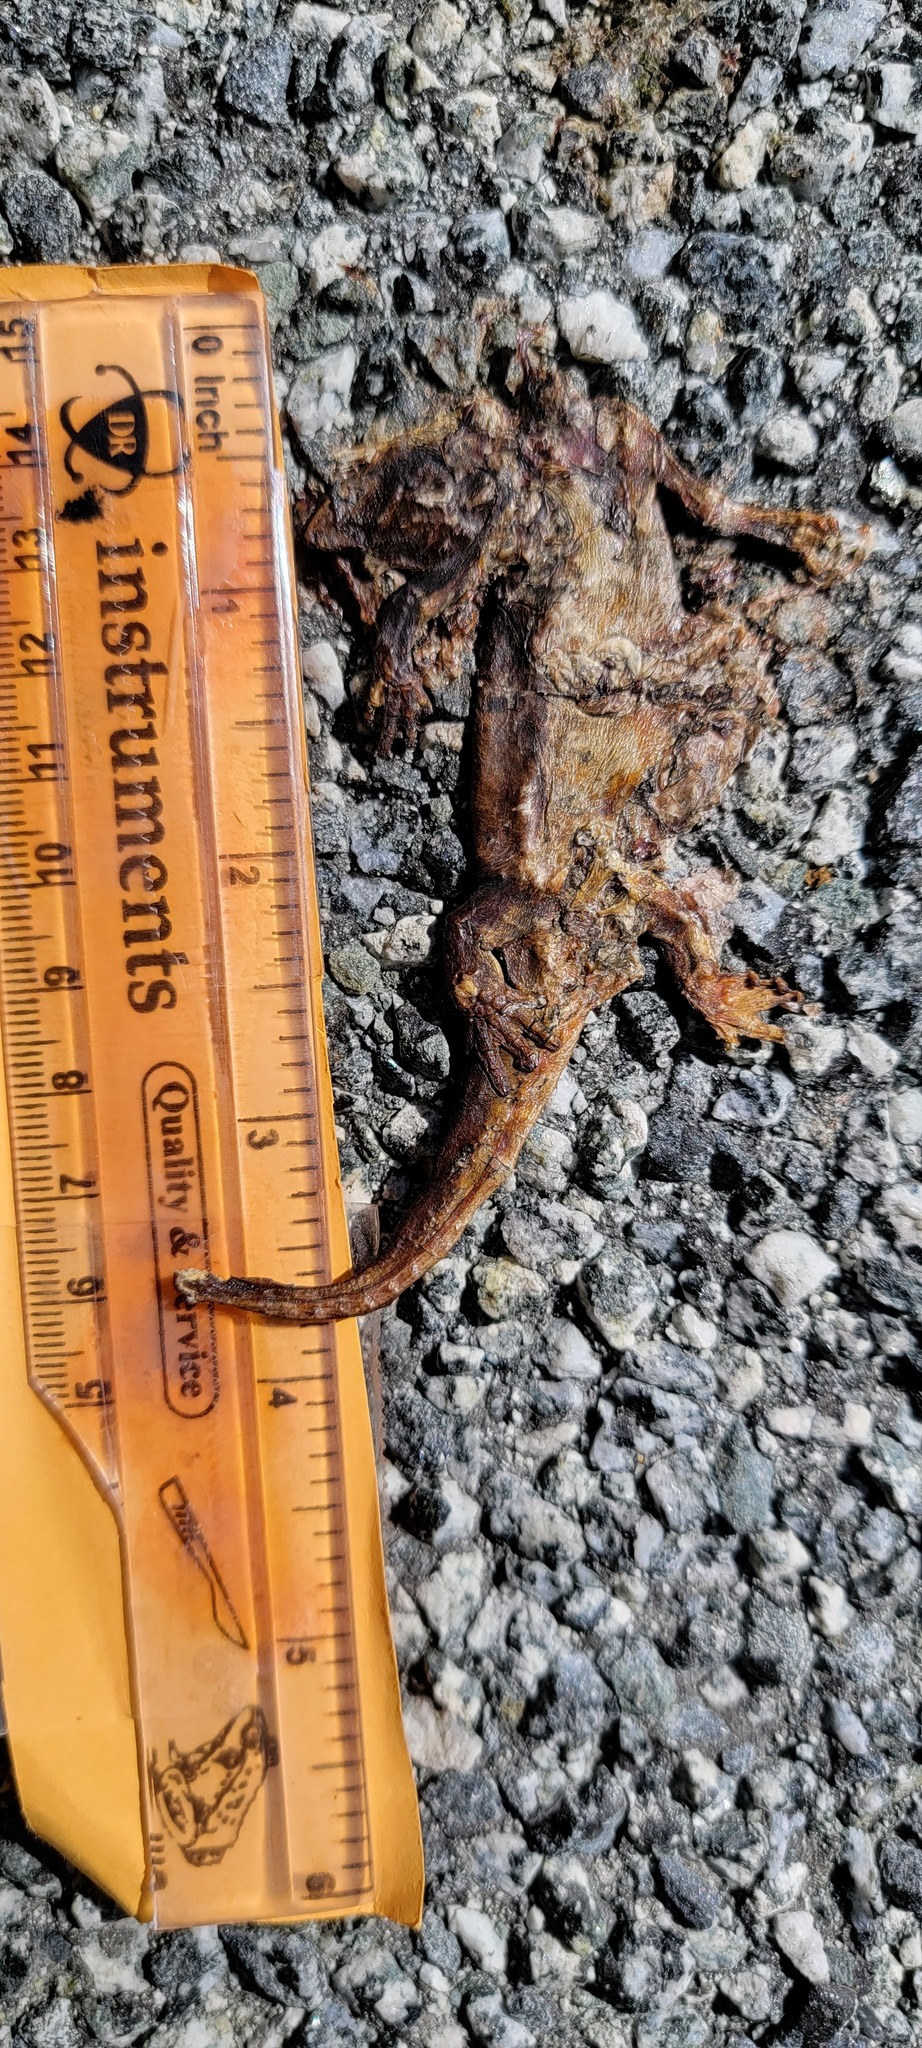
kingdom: Animalia
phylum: Chordata
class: Amphibia
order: Caudata
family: Salamandridae
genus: Taricha
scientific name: Taricha
